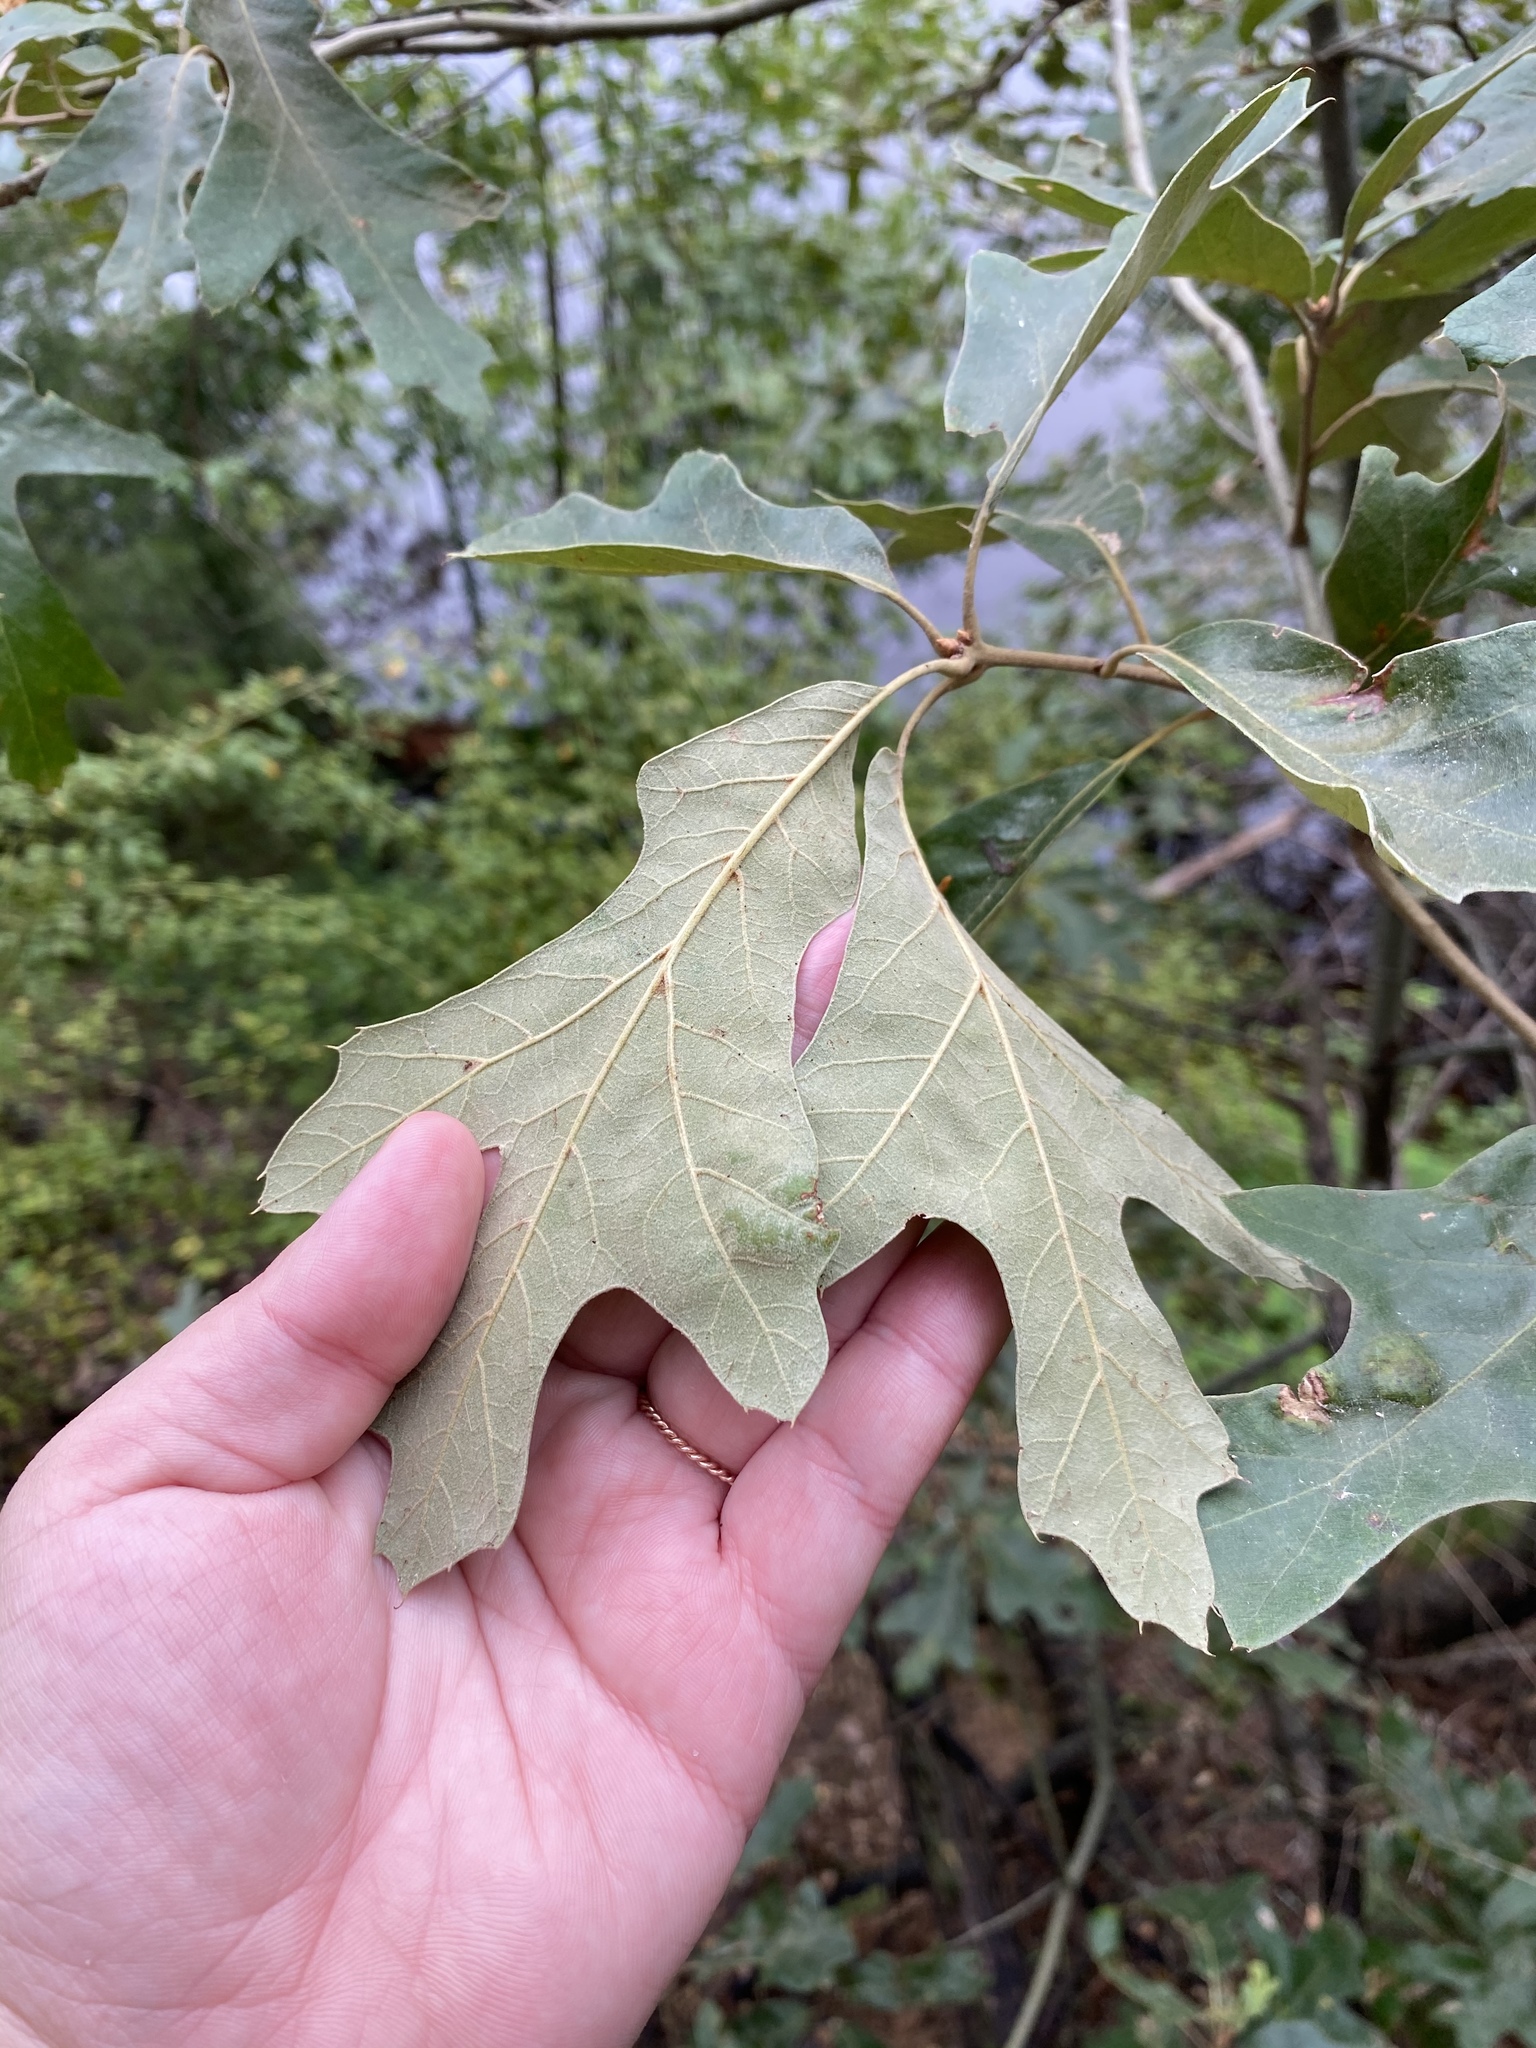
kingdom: Plantae
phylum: Tracheophyta
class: Magnoliopsida
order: Fagales
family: Fagaceae
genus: Quercus
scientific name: Quercus falcata
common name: Southern red oak
